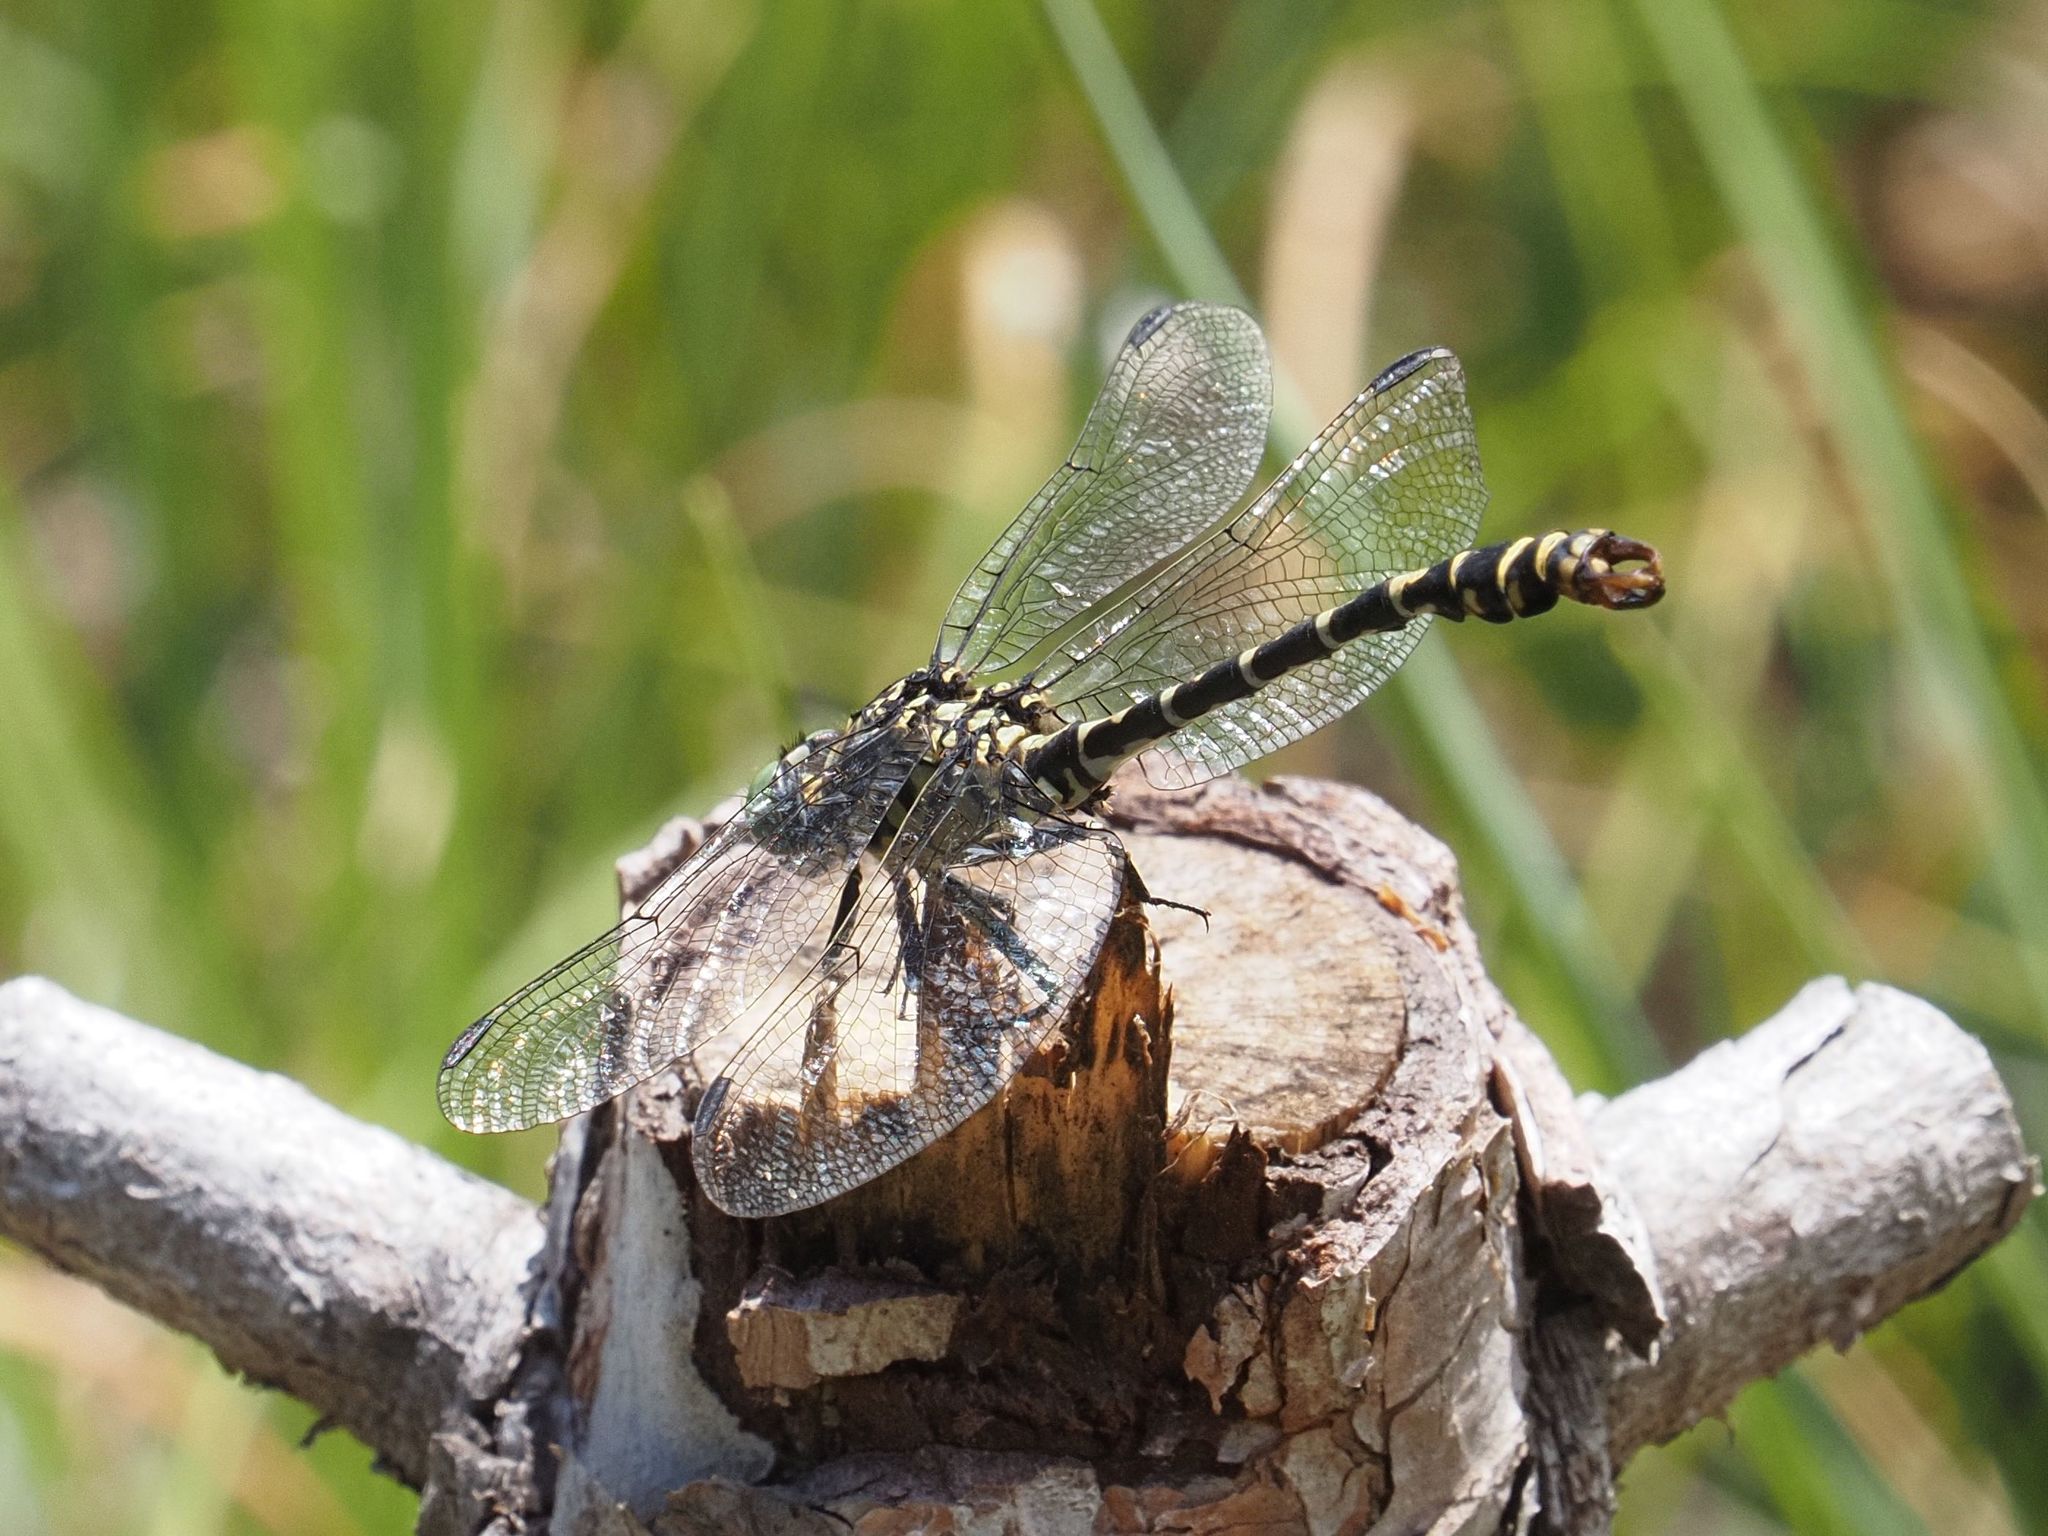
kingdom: Animalia
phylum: Arthropoda
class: Insecta
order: Odonata
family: Gomphidae
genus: Onychogomphus
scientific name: Onychogomphus forcipatus
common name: Small pincertail
